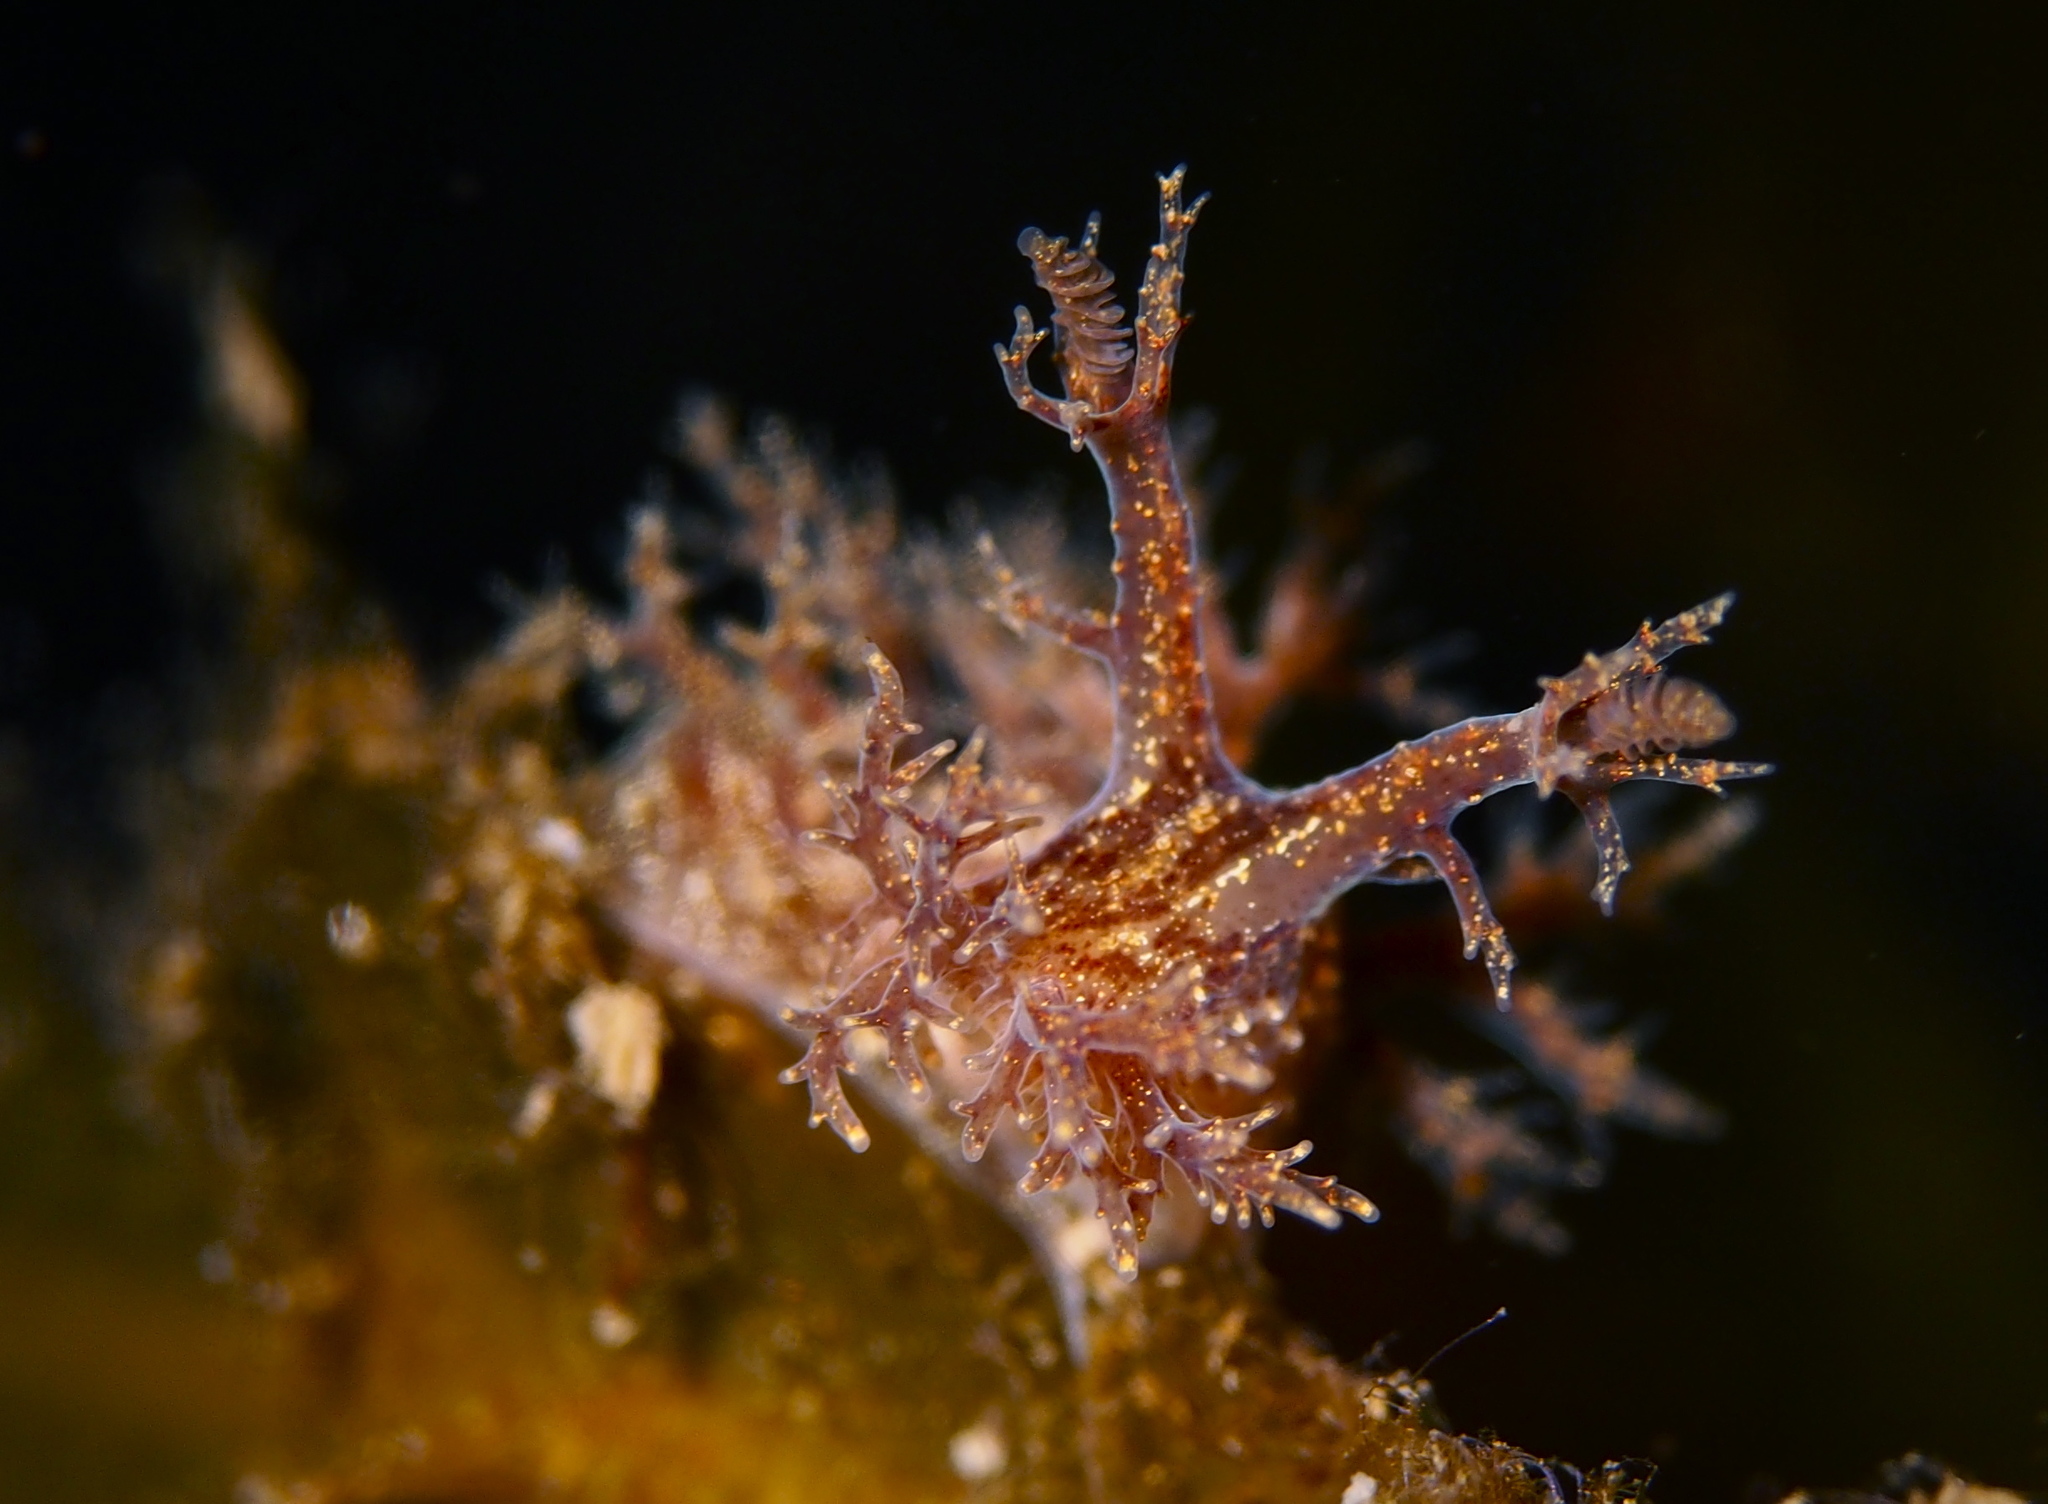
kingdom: Animalia
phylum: Mollusca
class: Gastropoda
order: Nudibranchia
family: Dendronotidae
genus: Dendronotus
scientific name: Dendronotus frondosus
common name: Bushy-backed nudibranch
